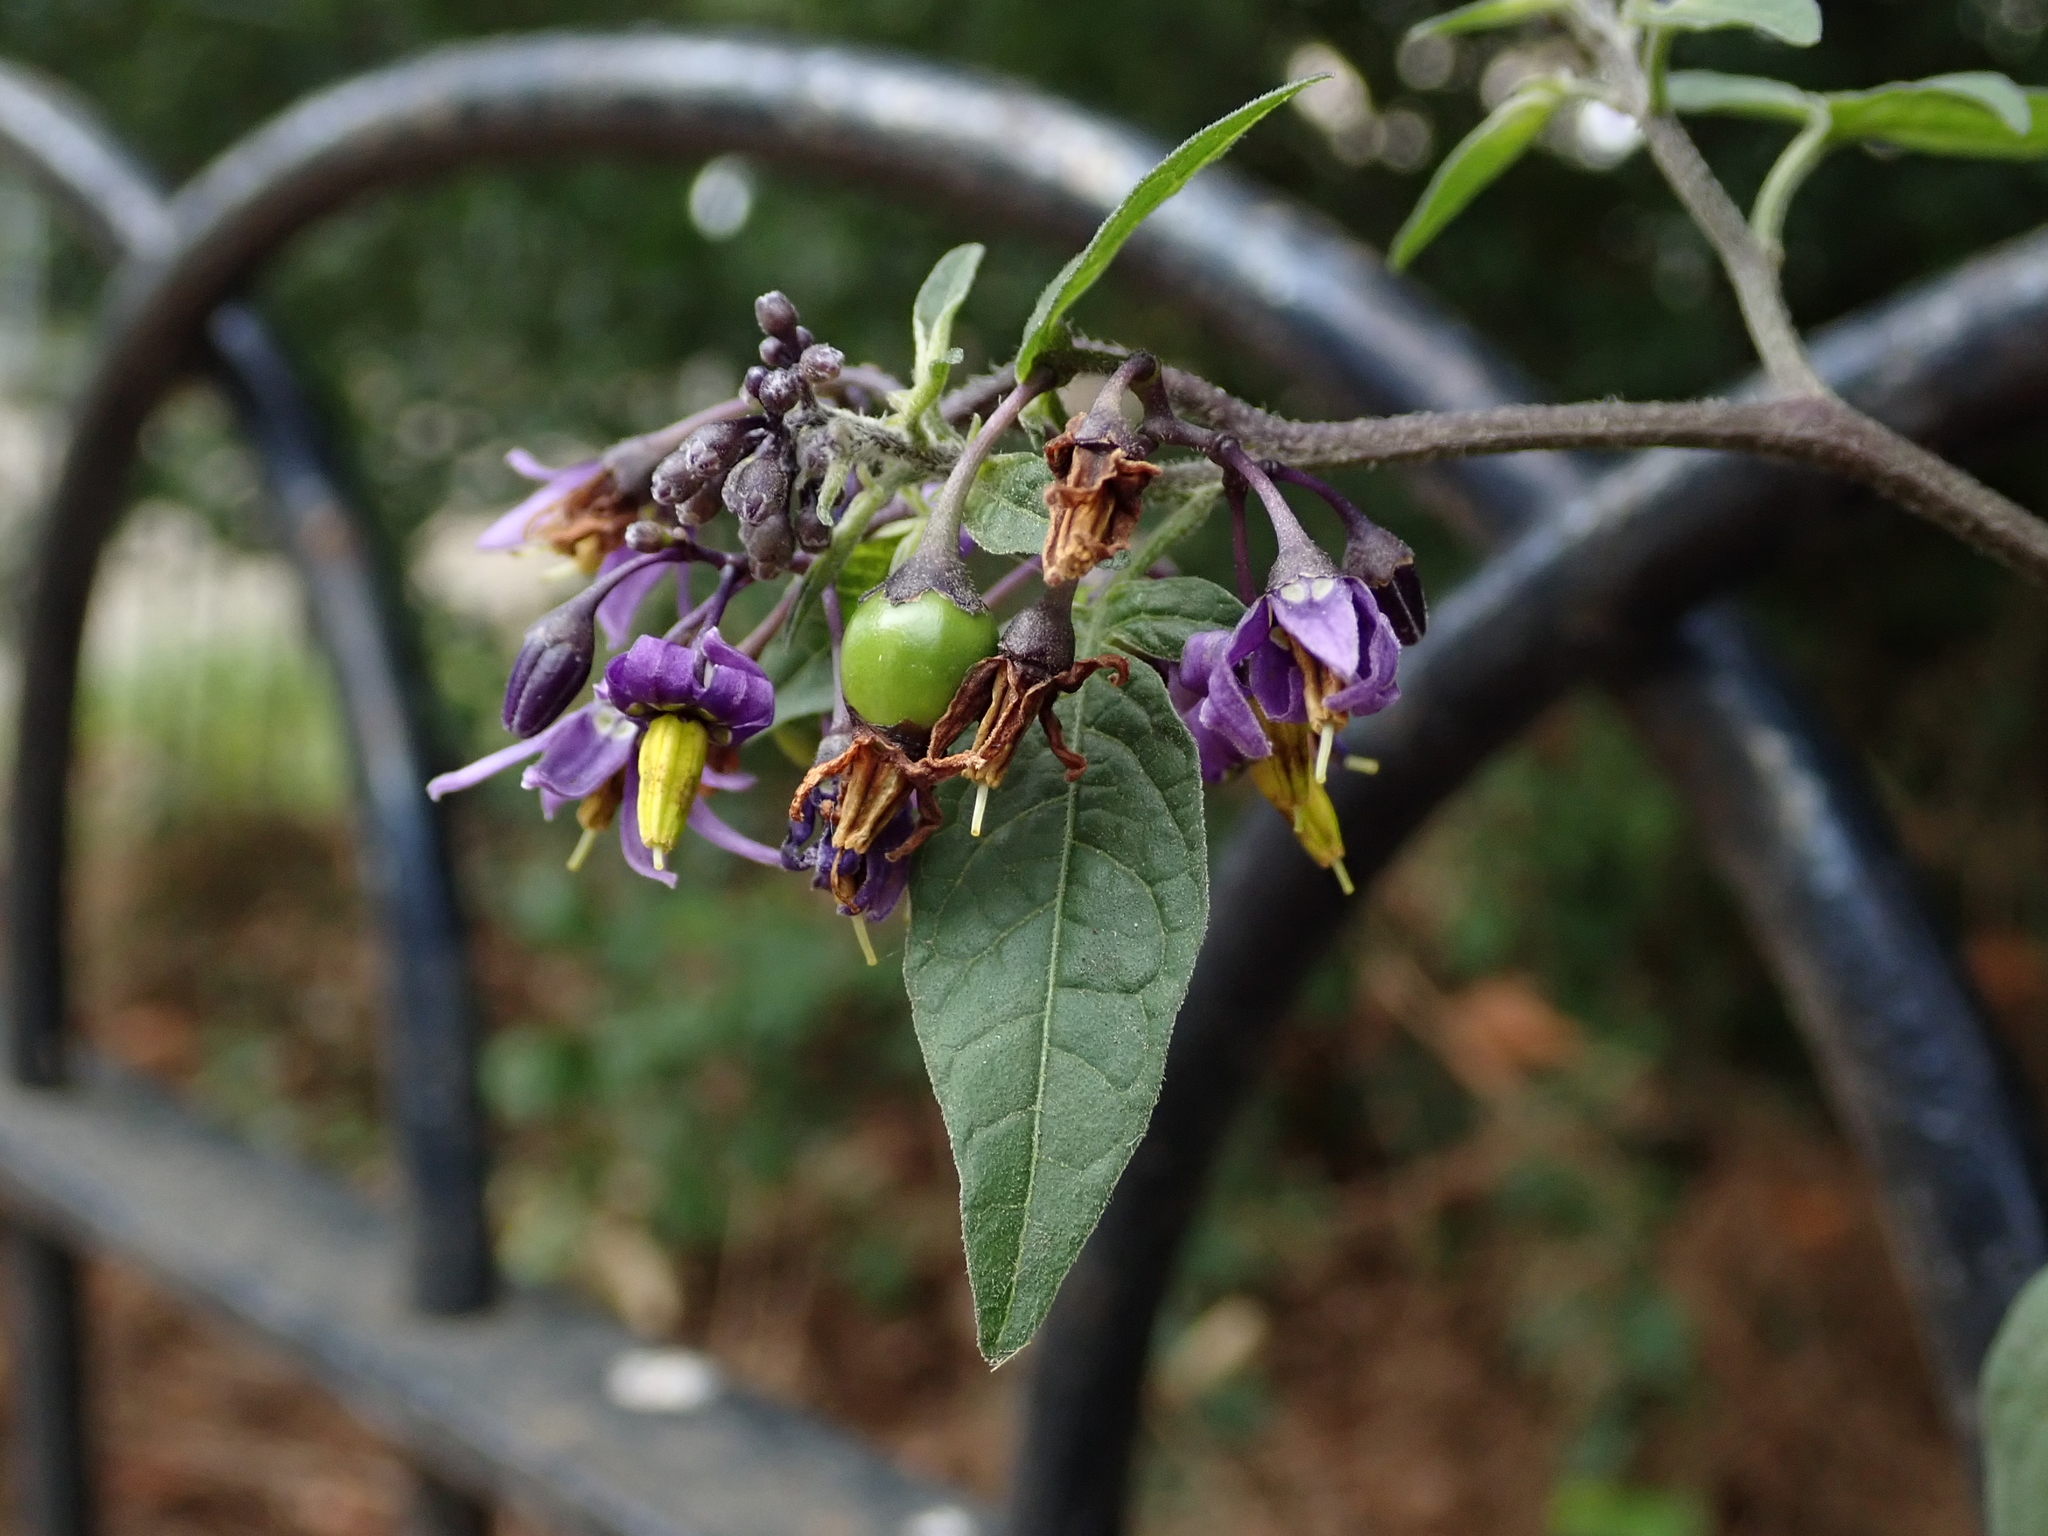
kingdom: Plantae
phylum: Tracheophyta
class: Magnoliopsida
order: Solanales
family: Solanaceae
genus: Solanum
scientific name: Solanum dulcamara
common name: Climbing nightshade
